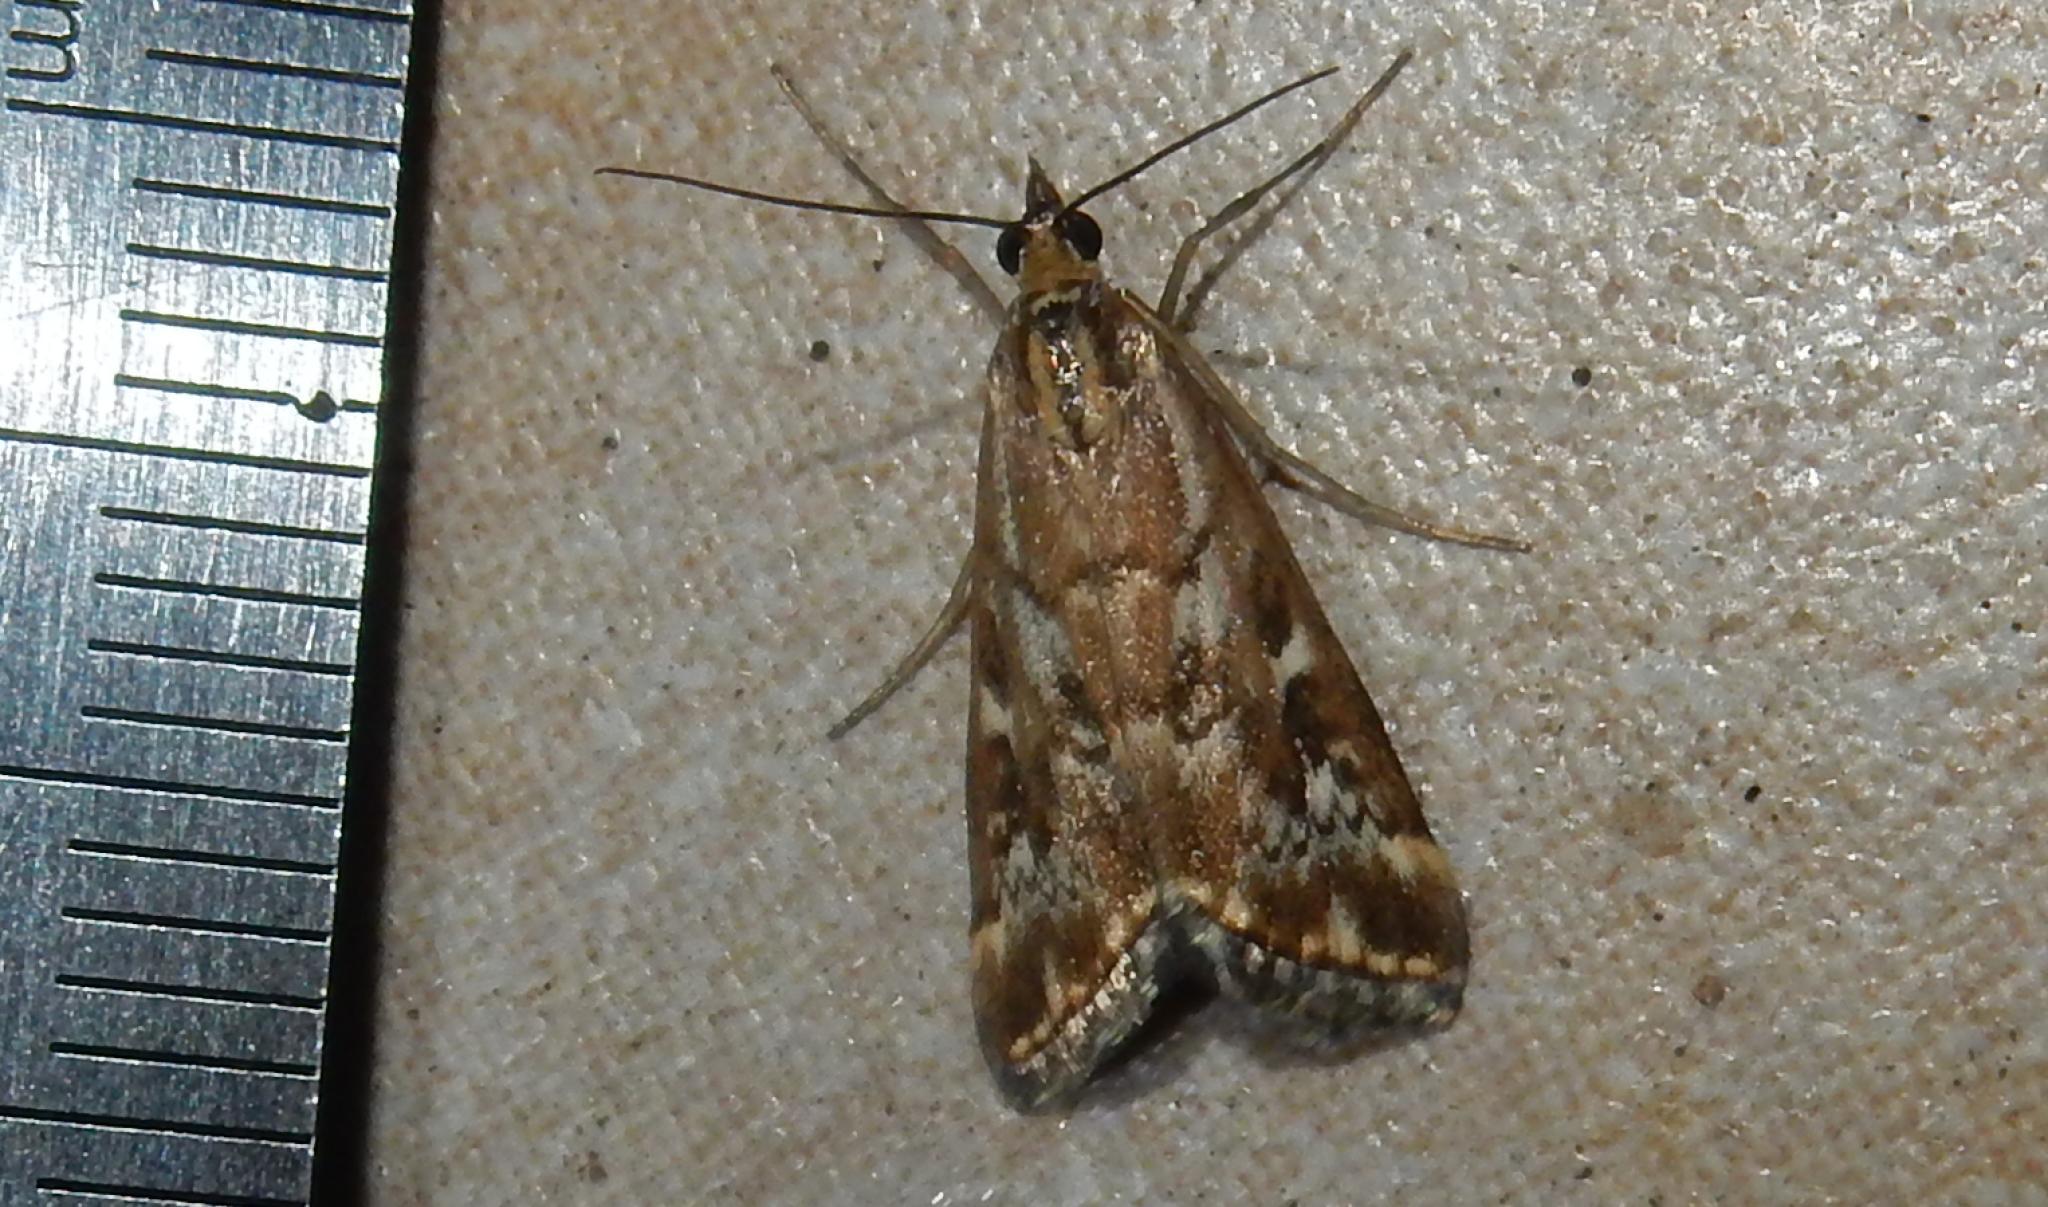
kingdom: Animalia
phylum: Arthropoda
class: Insecta
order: Lepidoptera
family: Crambidae
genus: Loxostege
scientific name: Loxostege frustalis
